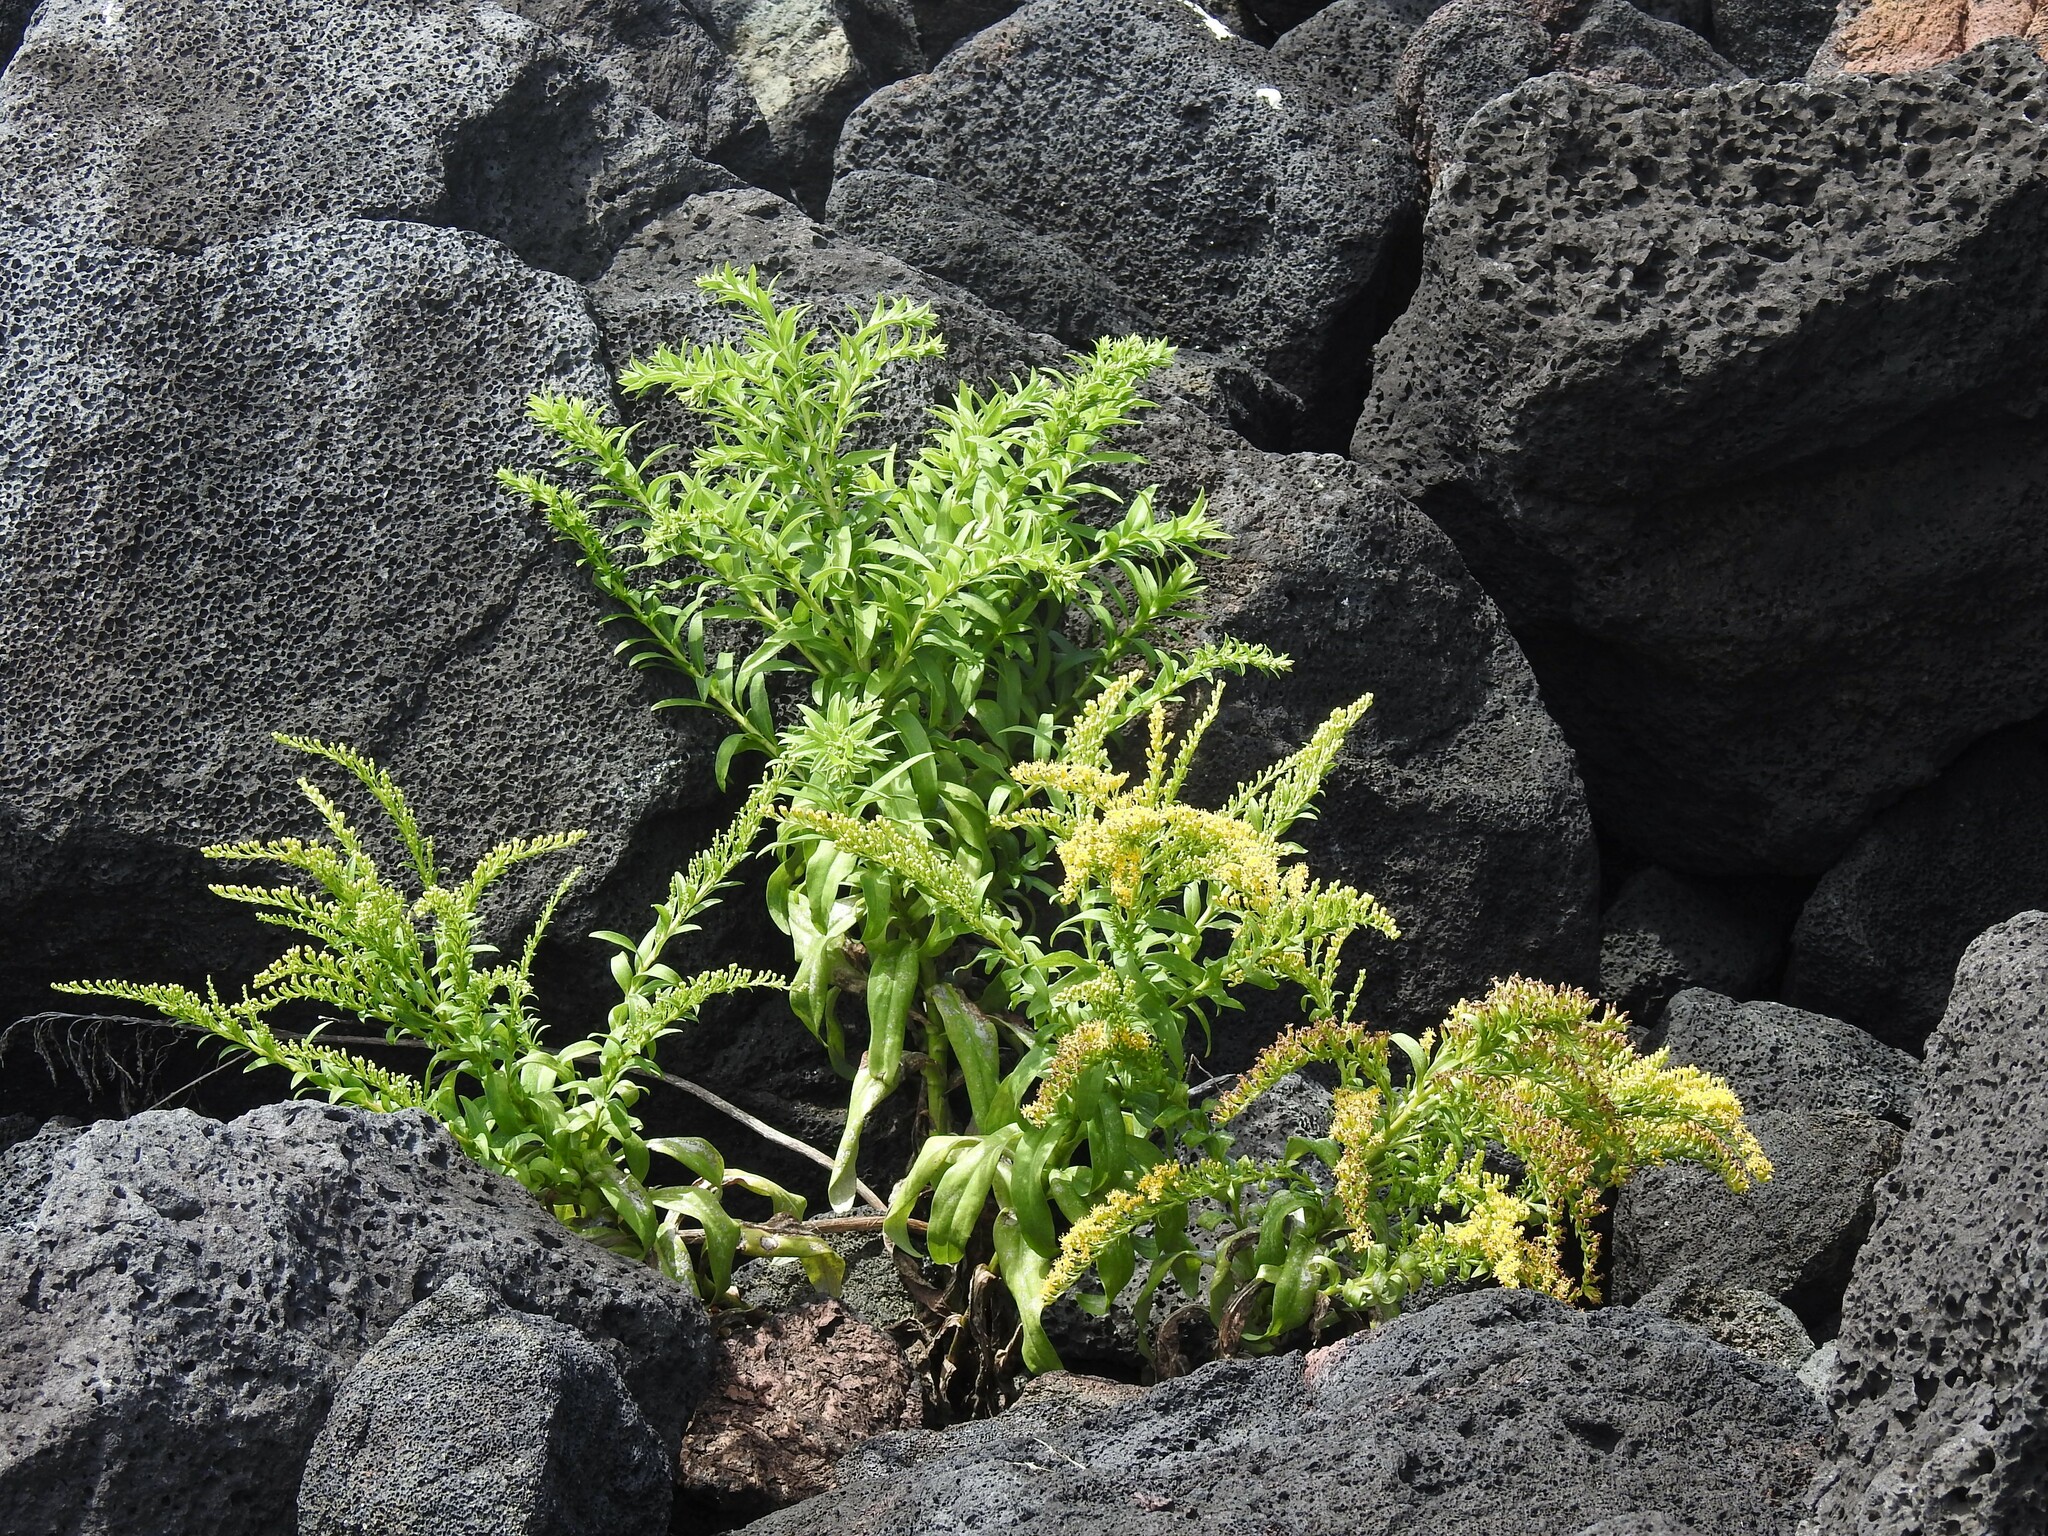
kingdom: Plantae
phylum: Tracheophyta
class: Magnoliopsida
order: Asterales
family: Asteraceae
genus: Solidago
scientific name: Solidago azorica
